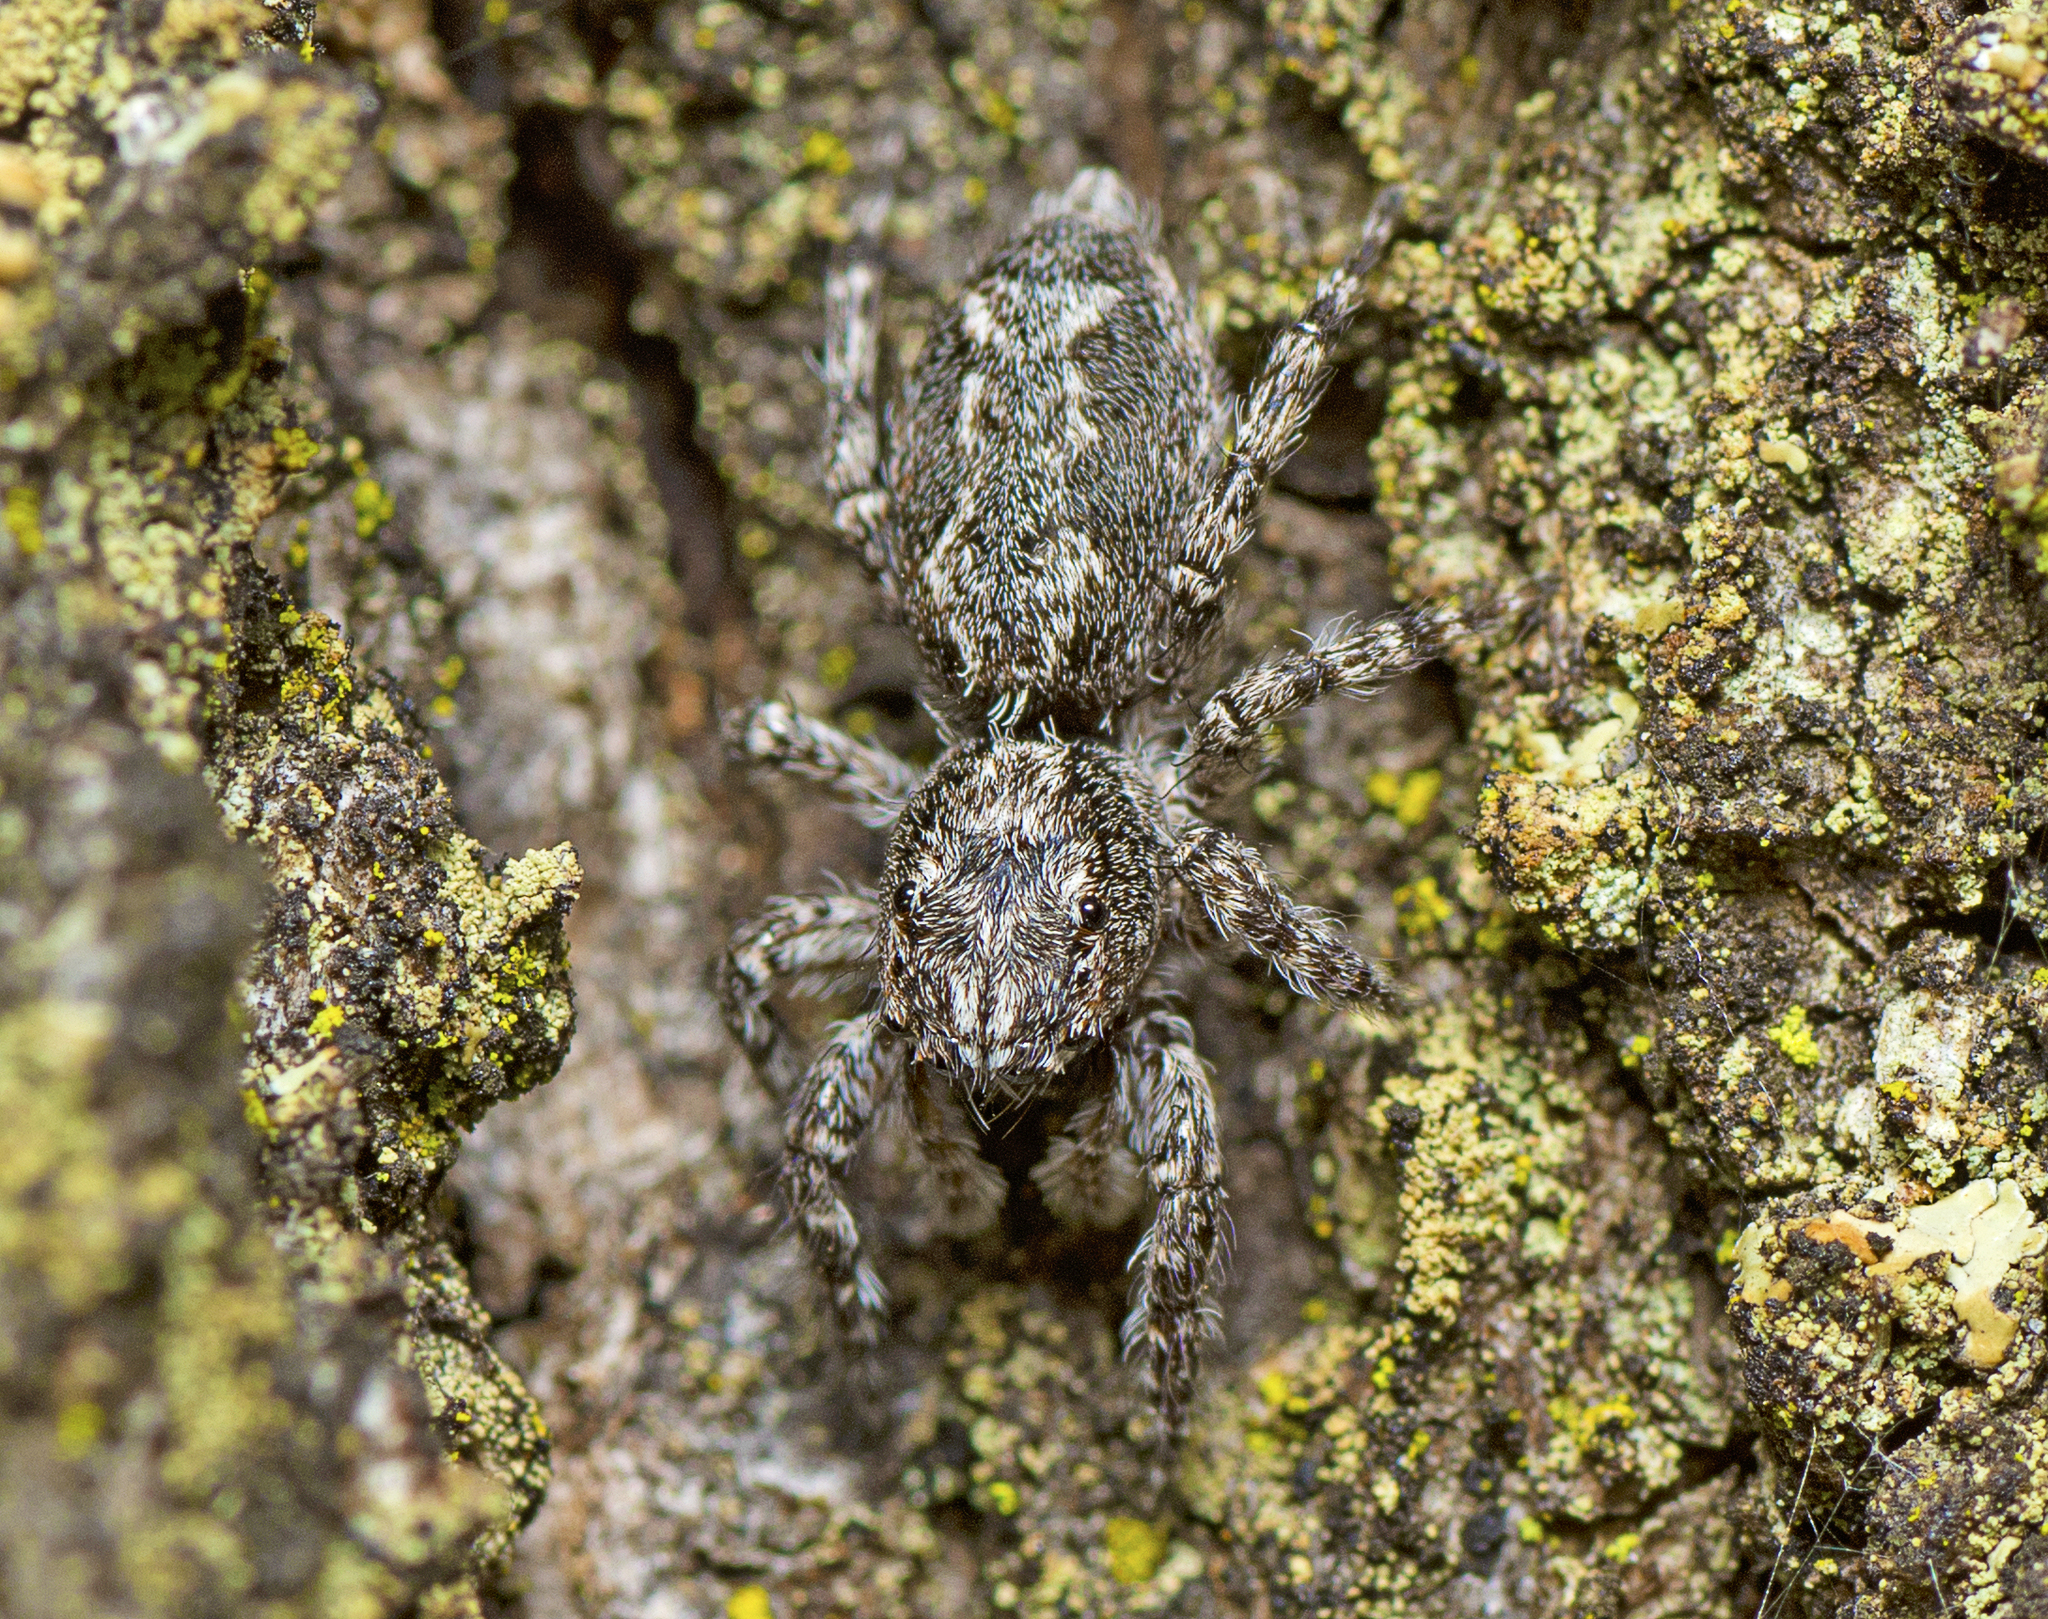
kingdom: Animalia
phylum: Arthropoda
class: Arachnida
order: Araneae
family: Salticidae
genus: Clynotis
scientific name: Clynotis severus
